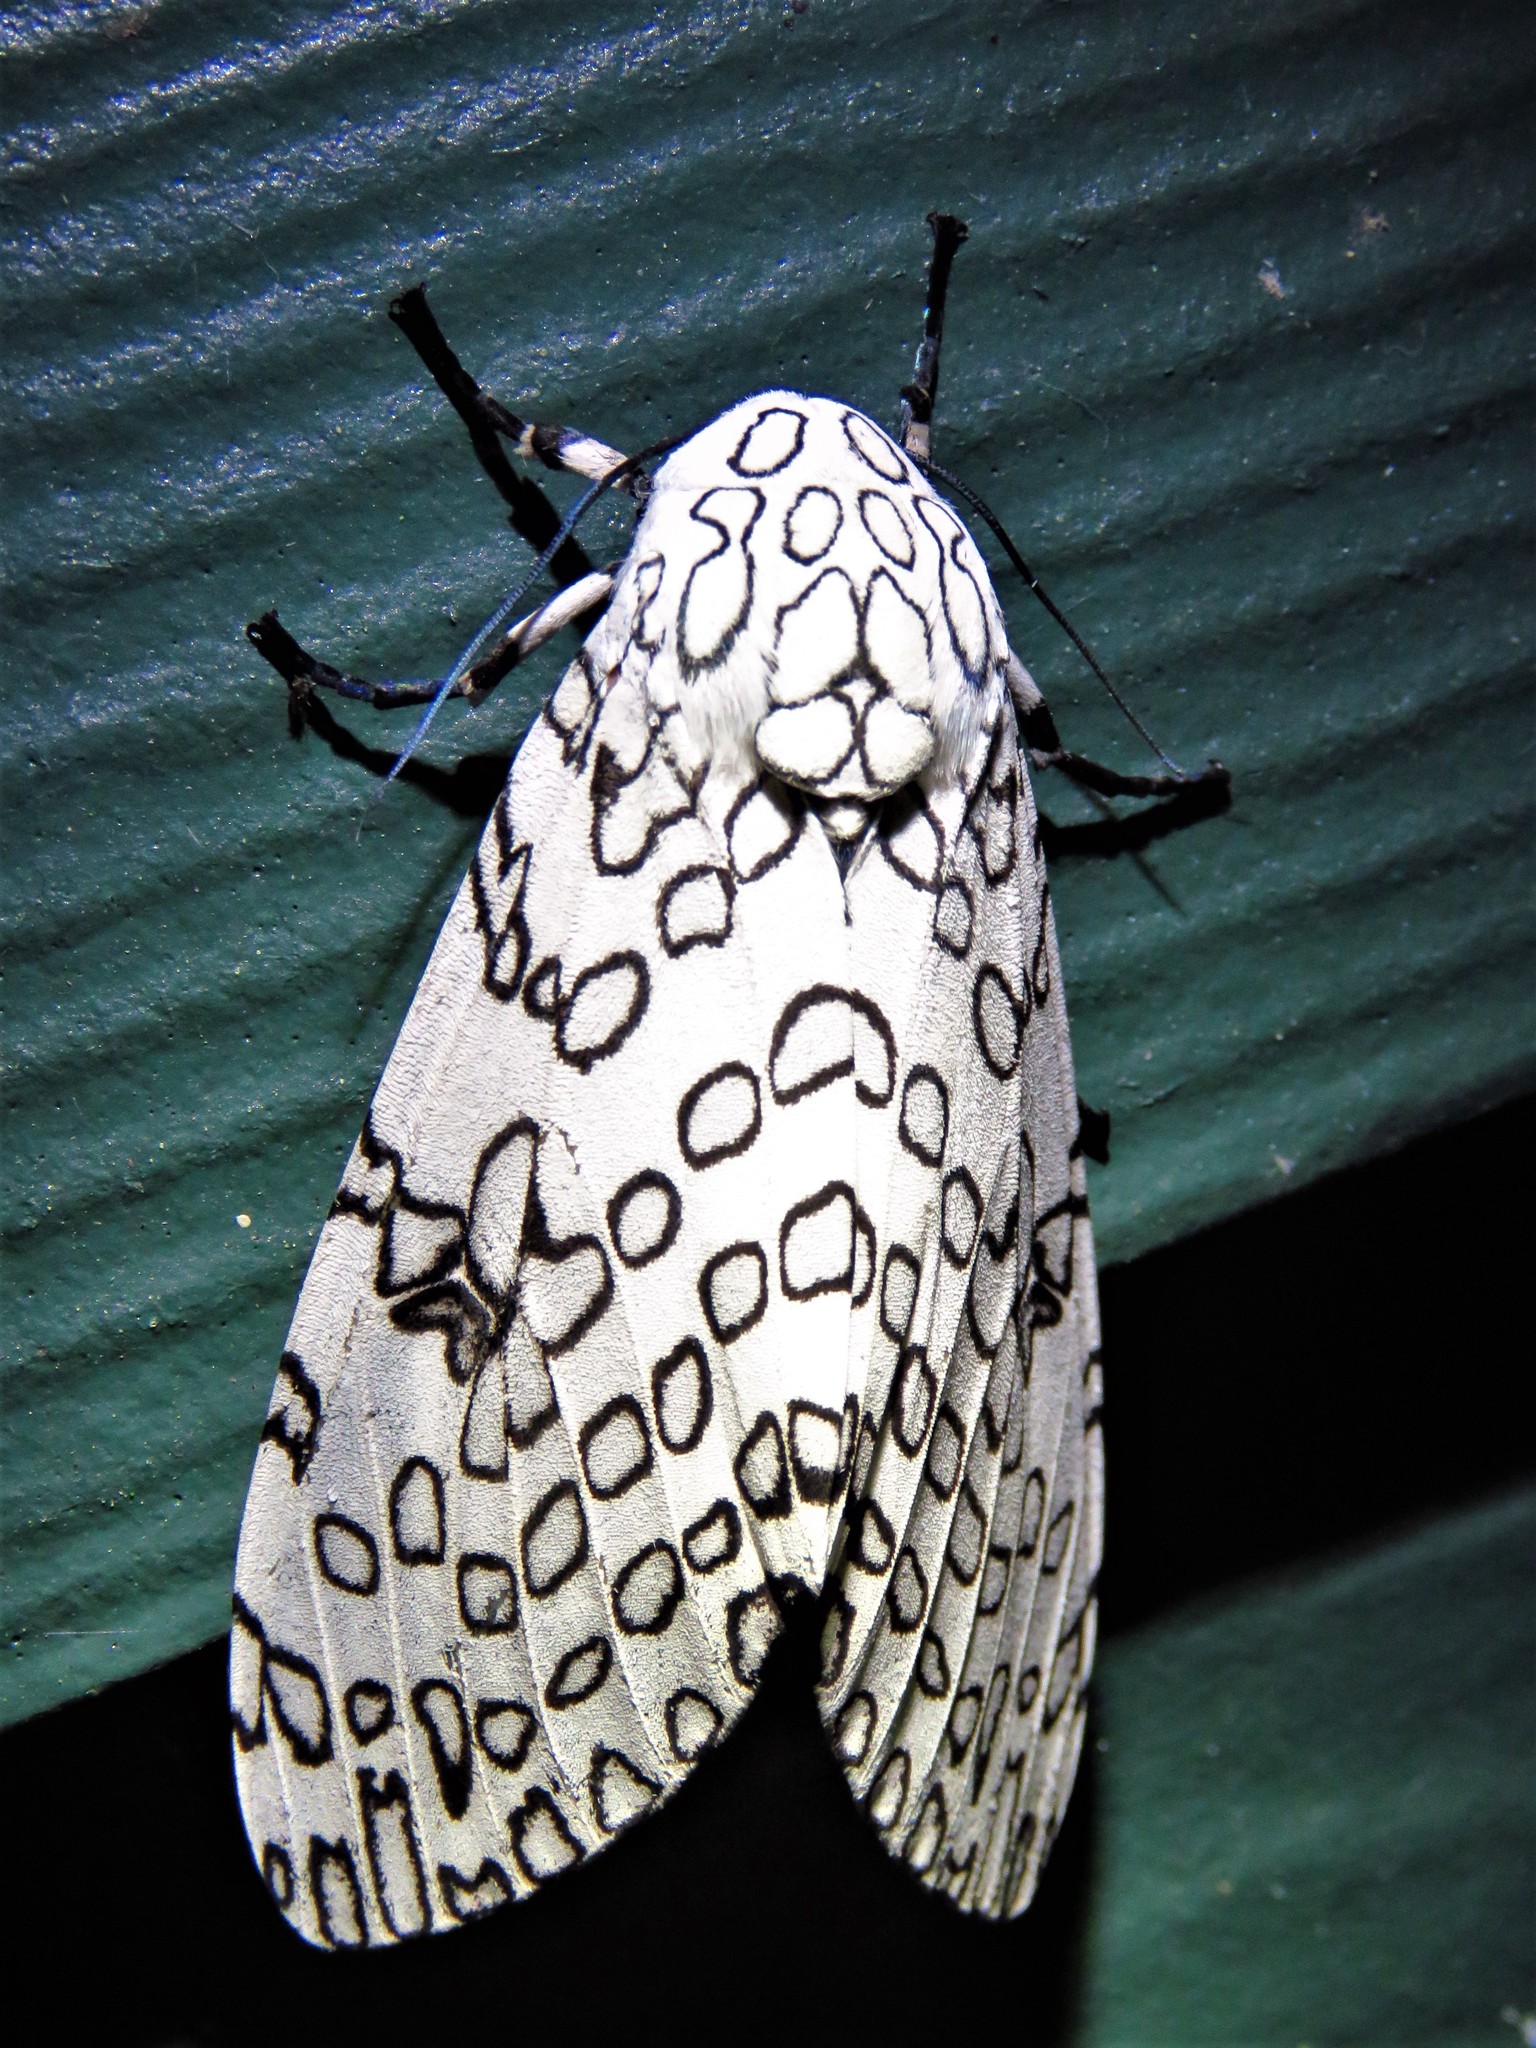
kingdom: Animalia
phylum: Arthropoda
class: Insecta
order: Lepidoptera
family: Erebidae
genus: Hypercompe
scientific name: Hypercompe scribonia
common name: Giant leopard moth
